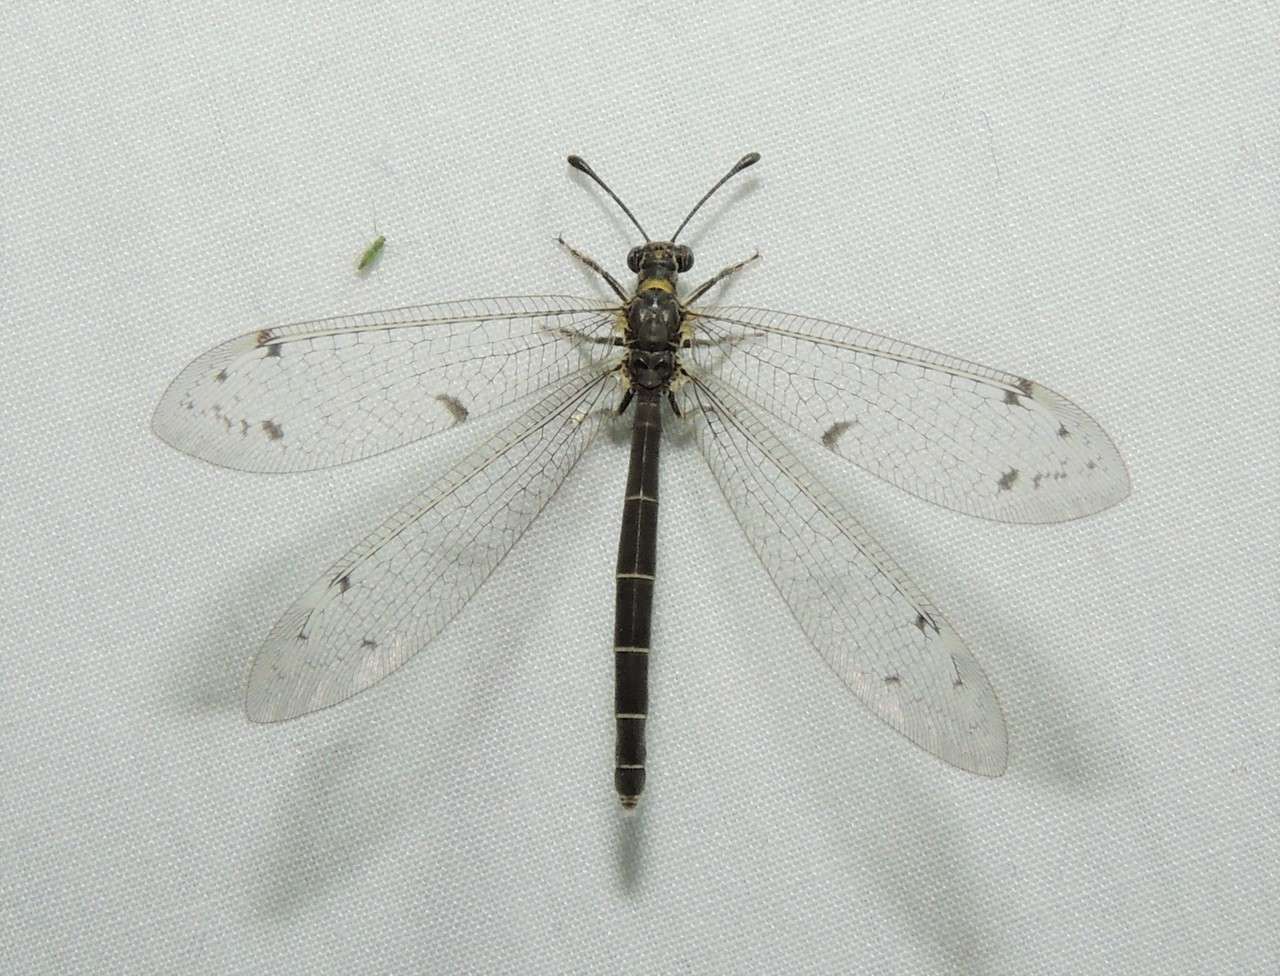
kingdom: Animalia
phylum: Arthropoda
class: Insecta
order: Neuroptera
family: Myrmeleontidae
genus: Bandidus
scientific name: Bandidus canifrons
